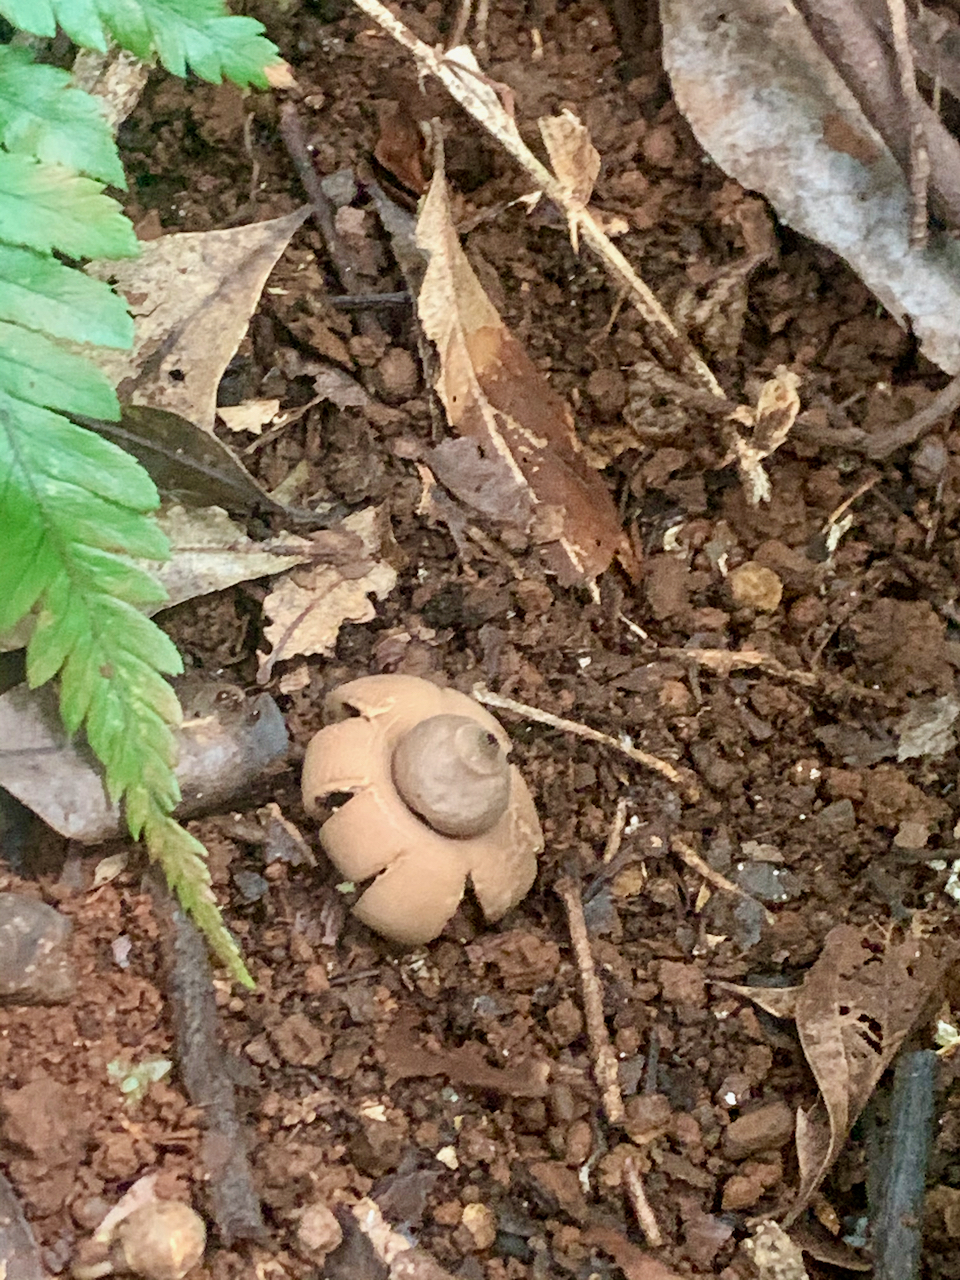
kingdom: Fungi
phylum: Basidiomycota
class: Agaricomycetes
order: Geastrales
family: Geastraceae
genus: Geastrum
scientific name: Geastrum saccatum
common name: Rounded earthstar
